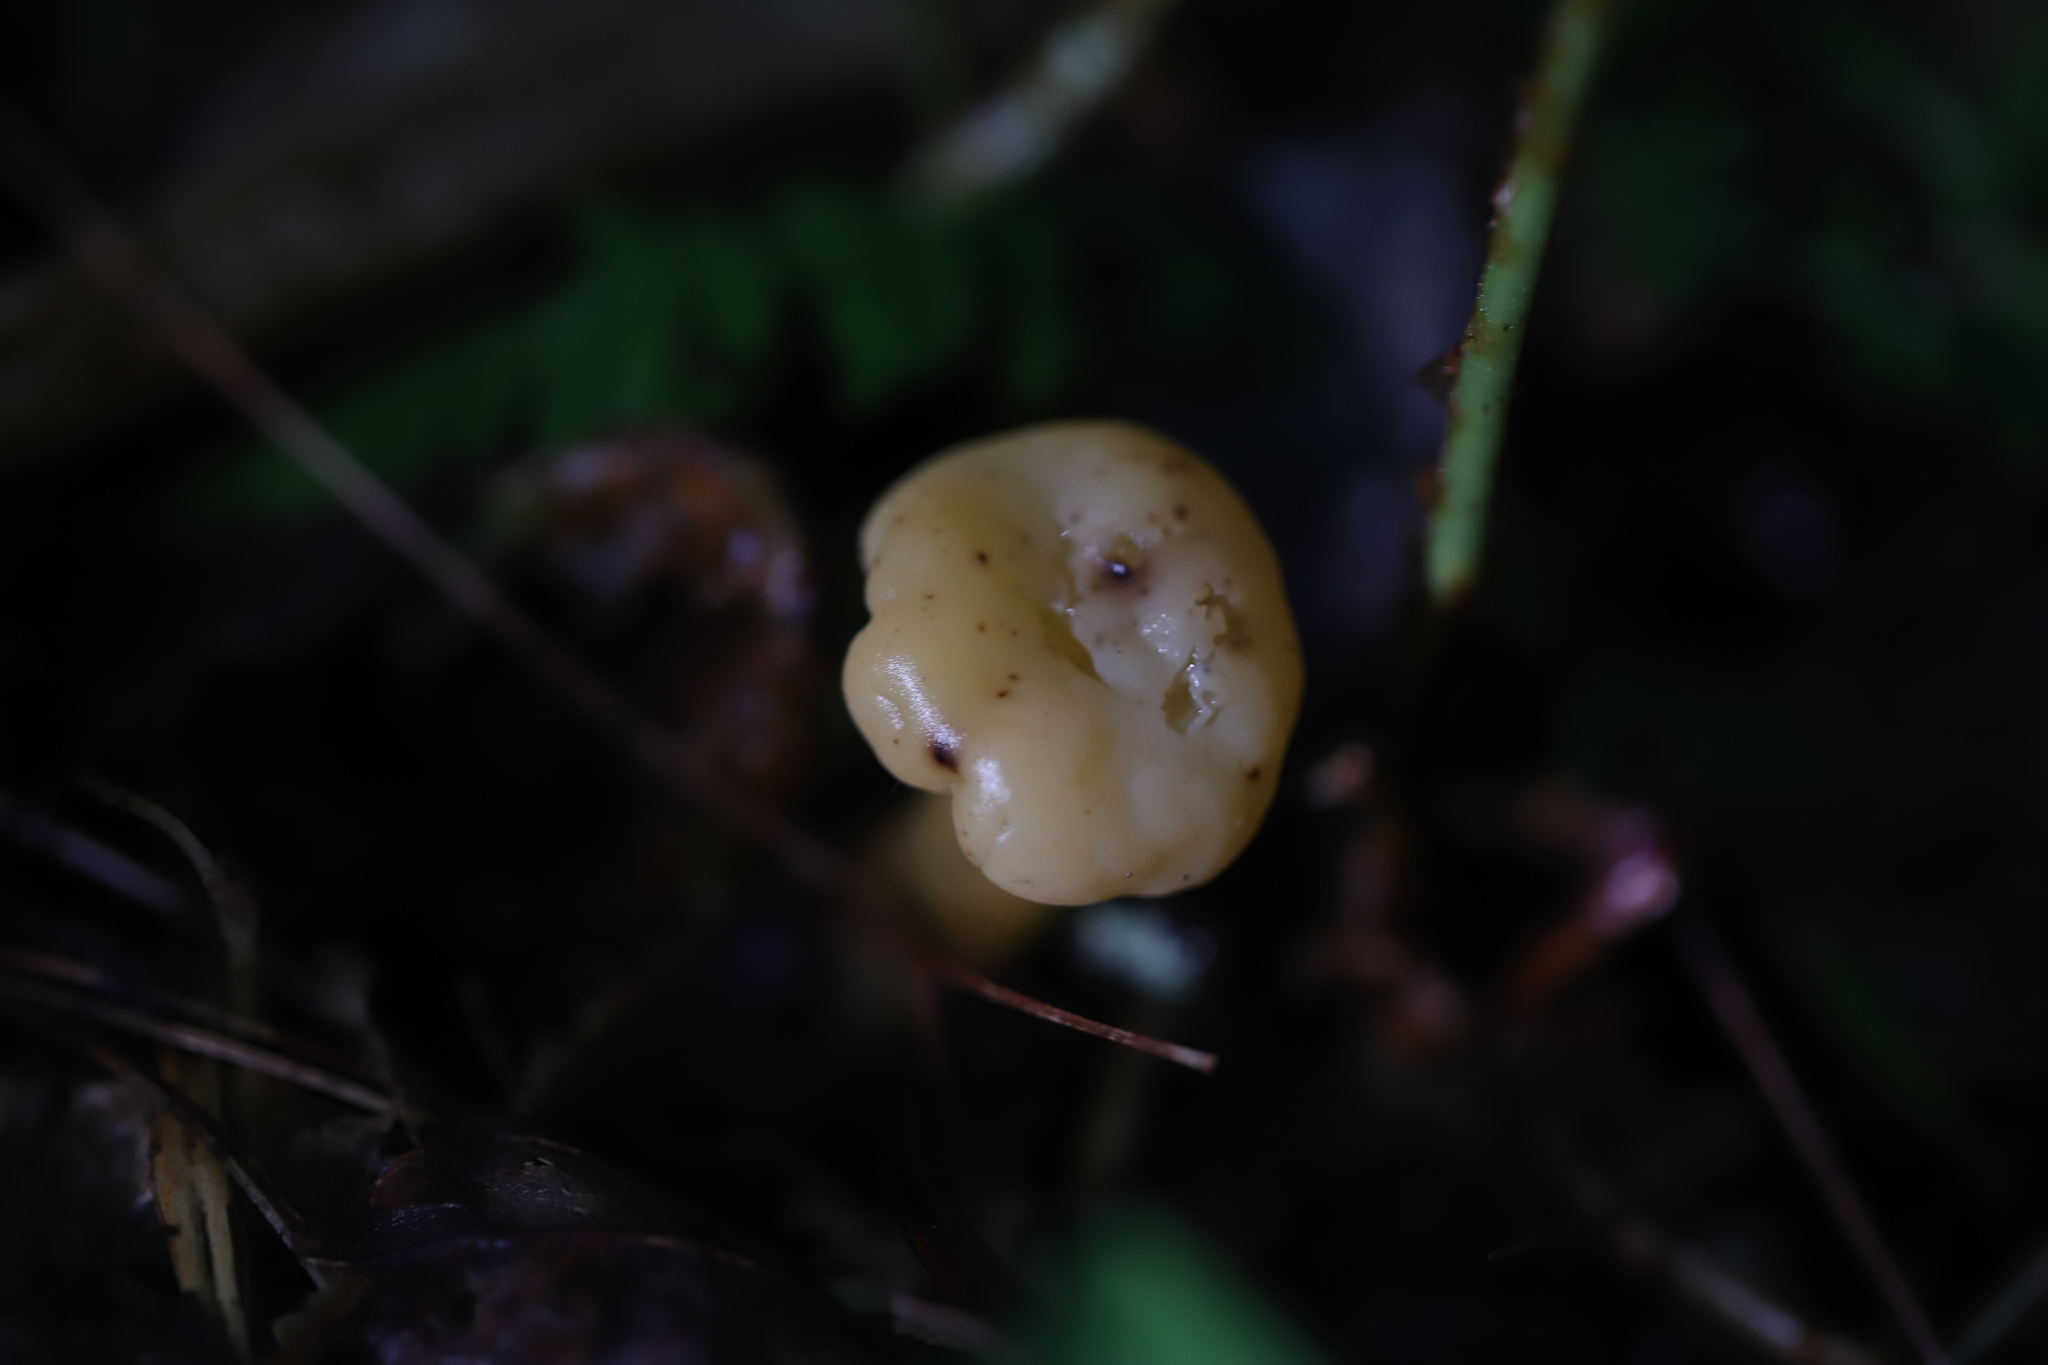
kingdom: Fungi
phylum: Ascomycota
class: Leotiomycetes
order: Leotiales
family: Leotiaceae
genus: Leotia
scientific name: Leotia lubrica
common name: Jellybaby
